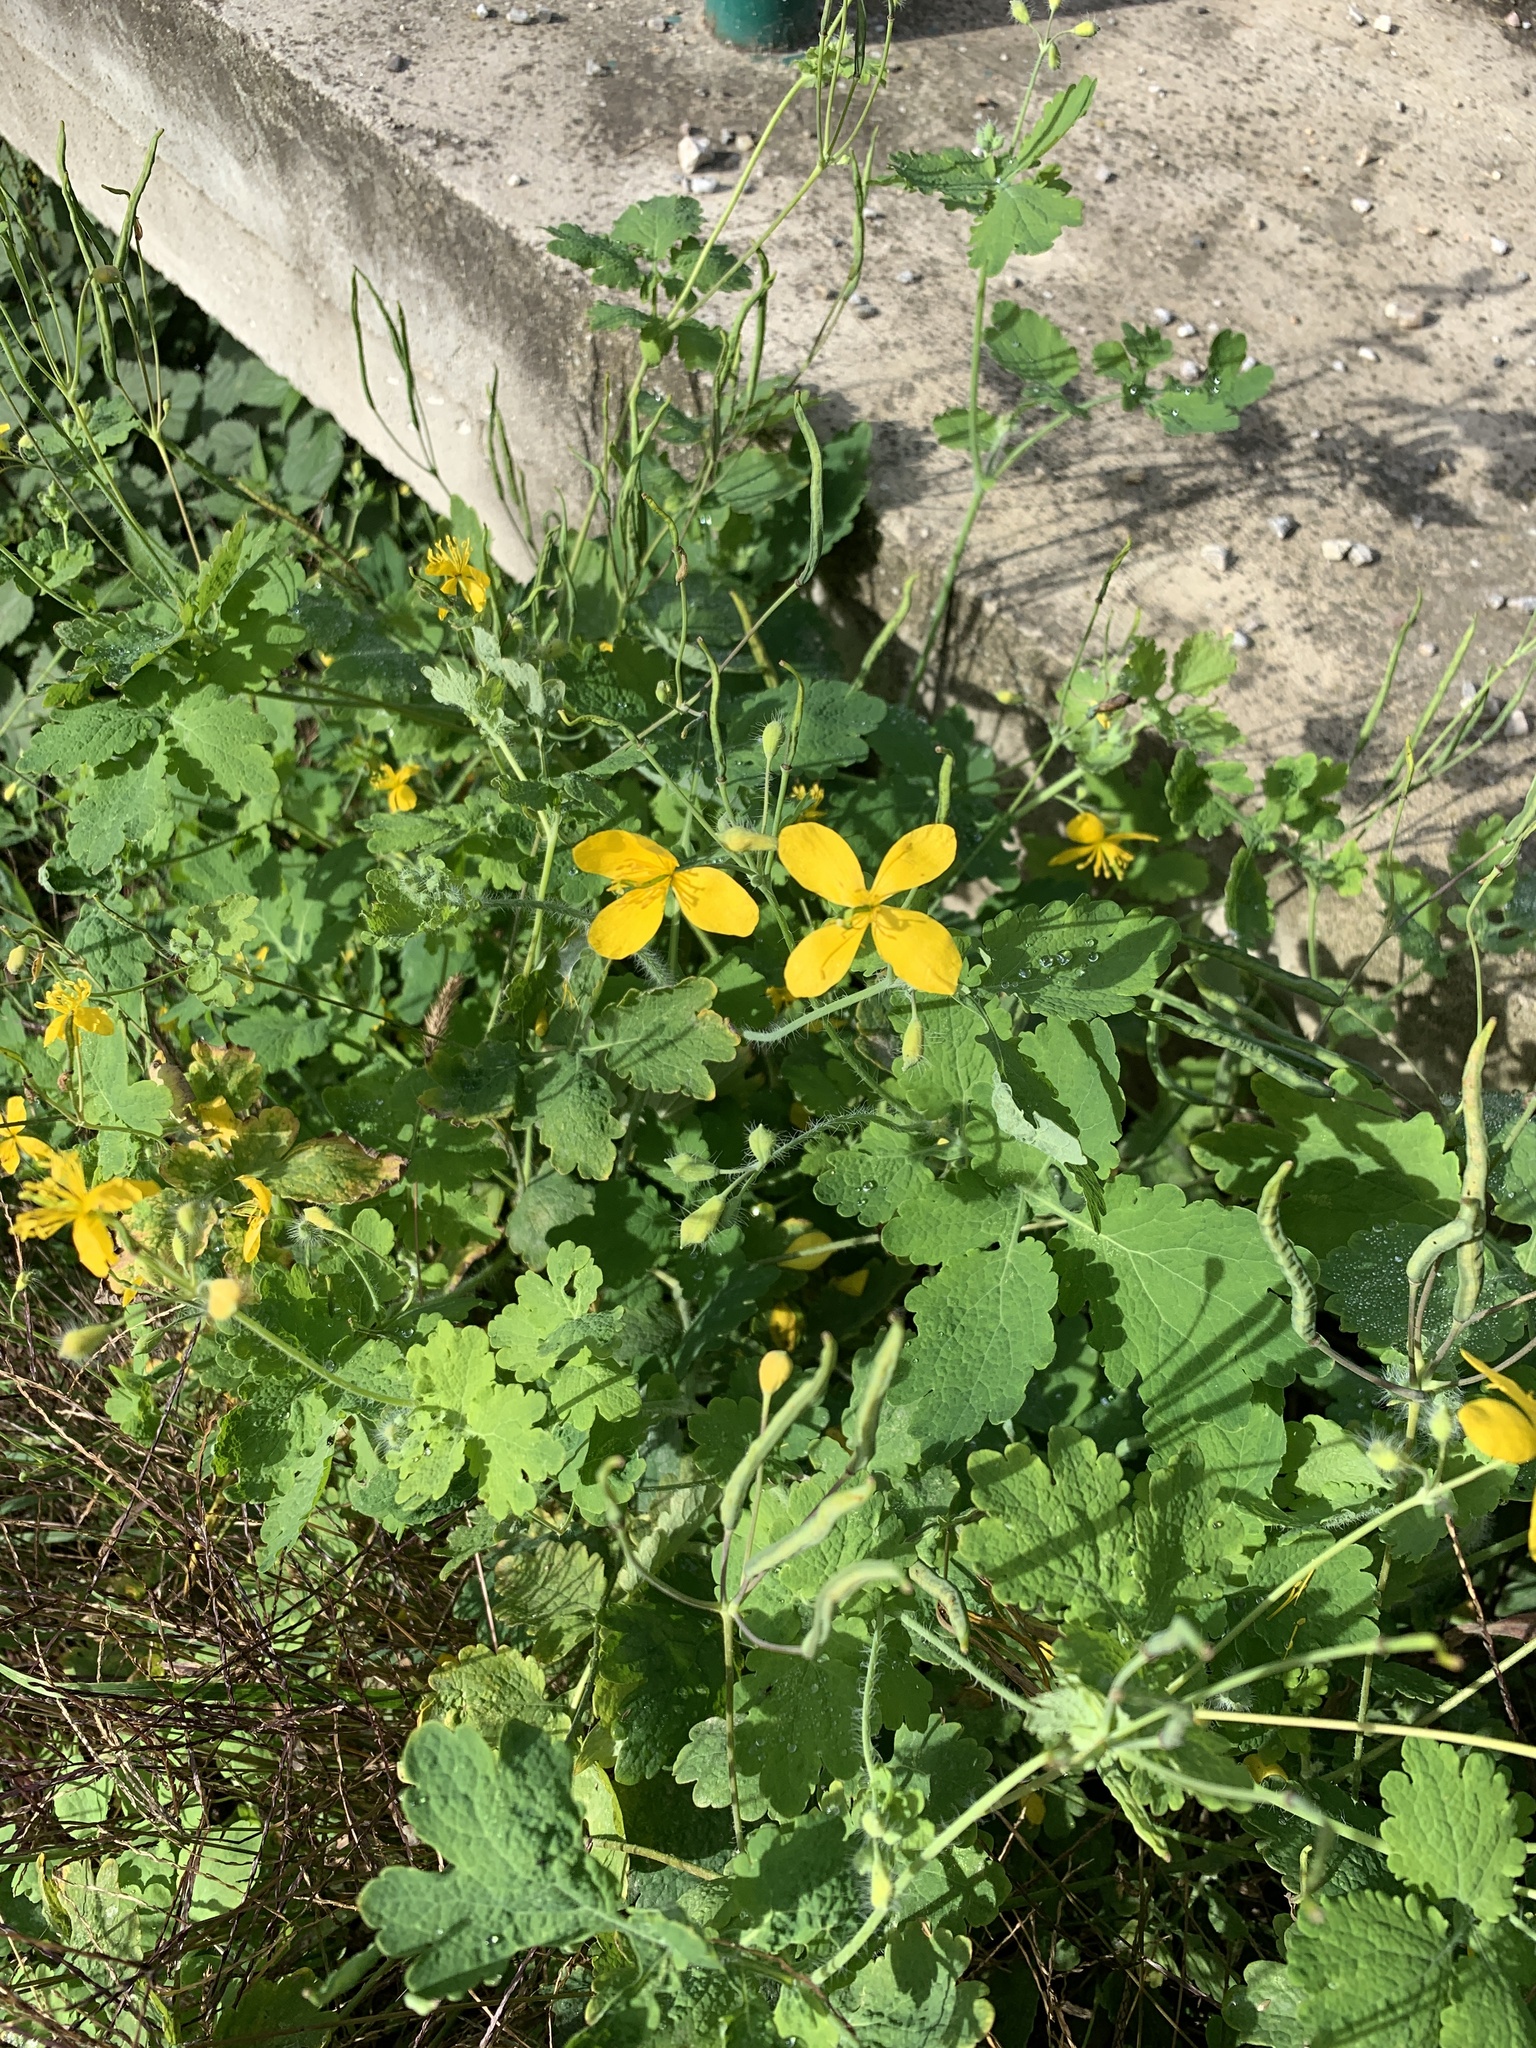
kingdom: Plantae
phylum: Tracheophyta
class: Magnoliopsida
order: Ranunculales
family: Papaveraceae
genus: Chelidonium
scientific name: Chelidonium majus
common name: Greater celandine
